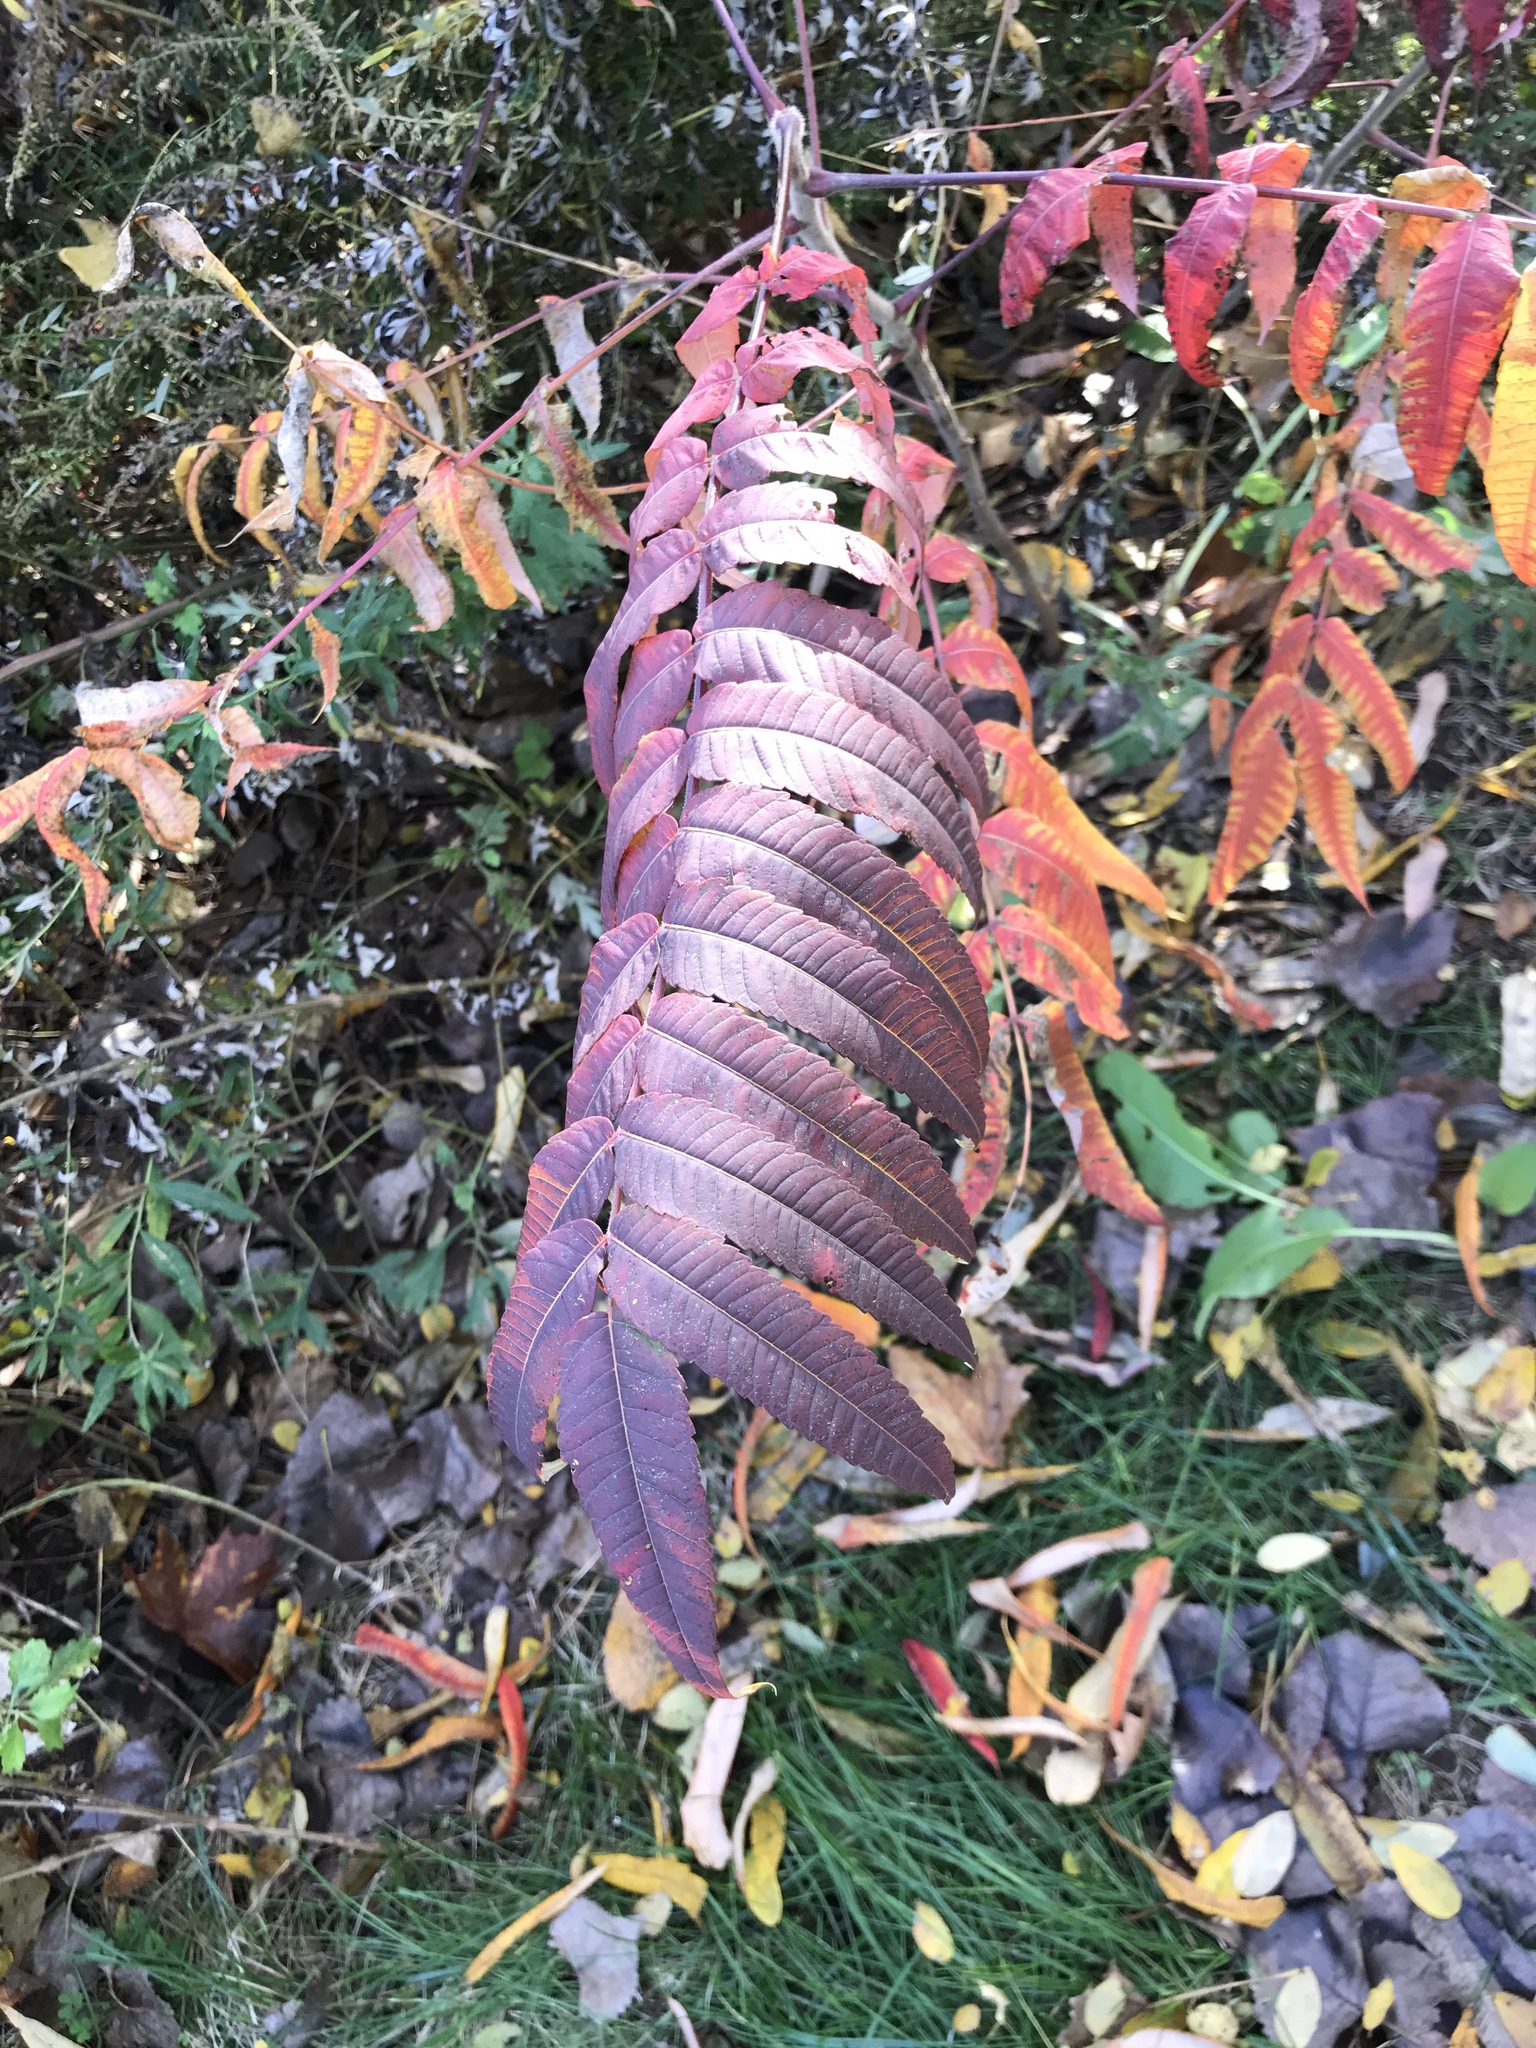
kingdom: Plantae
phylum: Tracheophyta
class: Magnoliopsida
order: Sapindales
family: Anacardiaceae
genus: Rhus
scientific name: Rhus typhina
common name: Staghorn sumac
